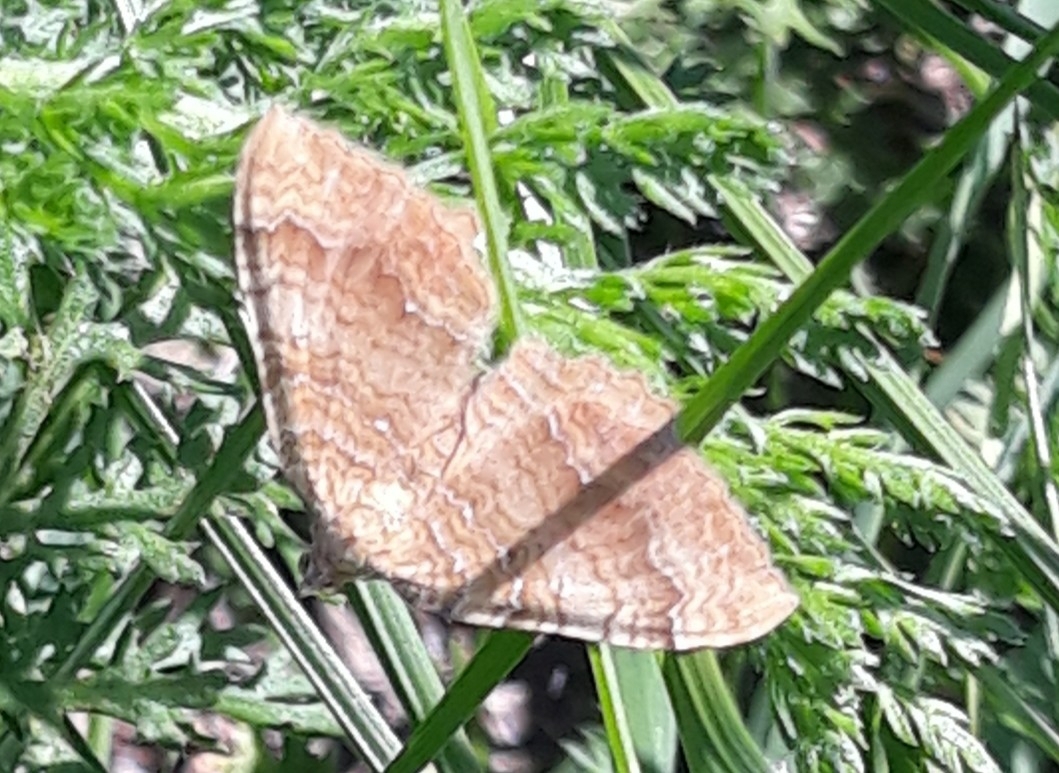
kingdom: Animalia
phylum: Arthropoda
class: Insecta
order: Lepidoptera
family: Geometridae
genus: Camptogramma
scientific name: Camptogramma bilineata
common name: Yellow shell
